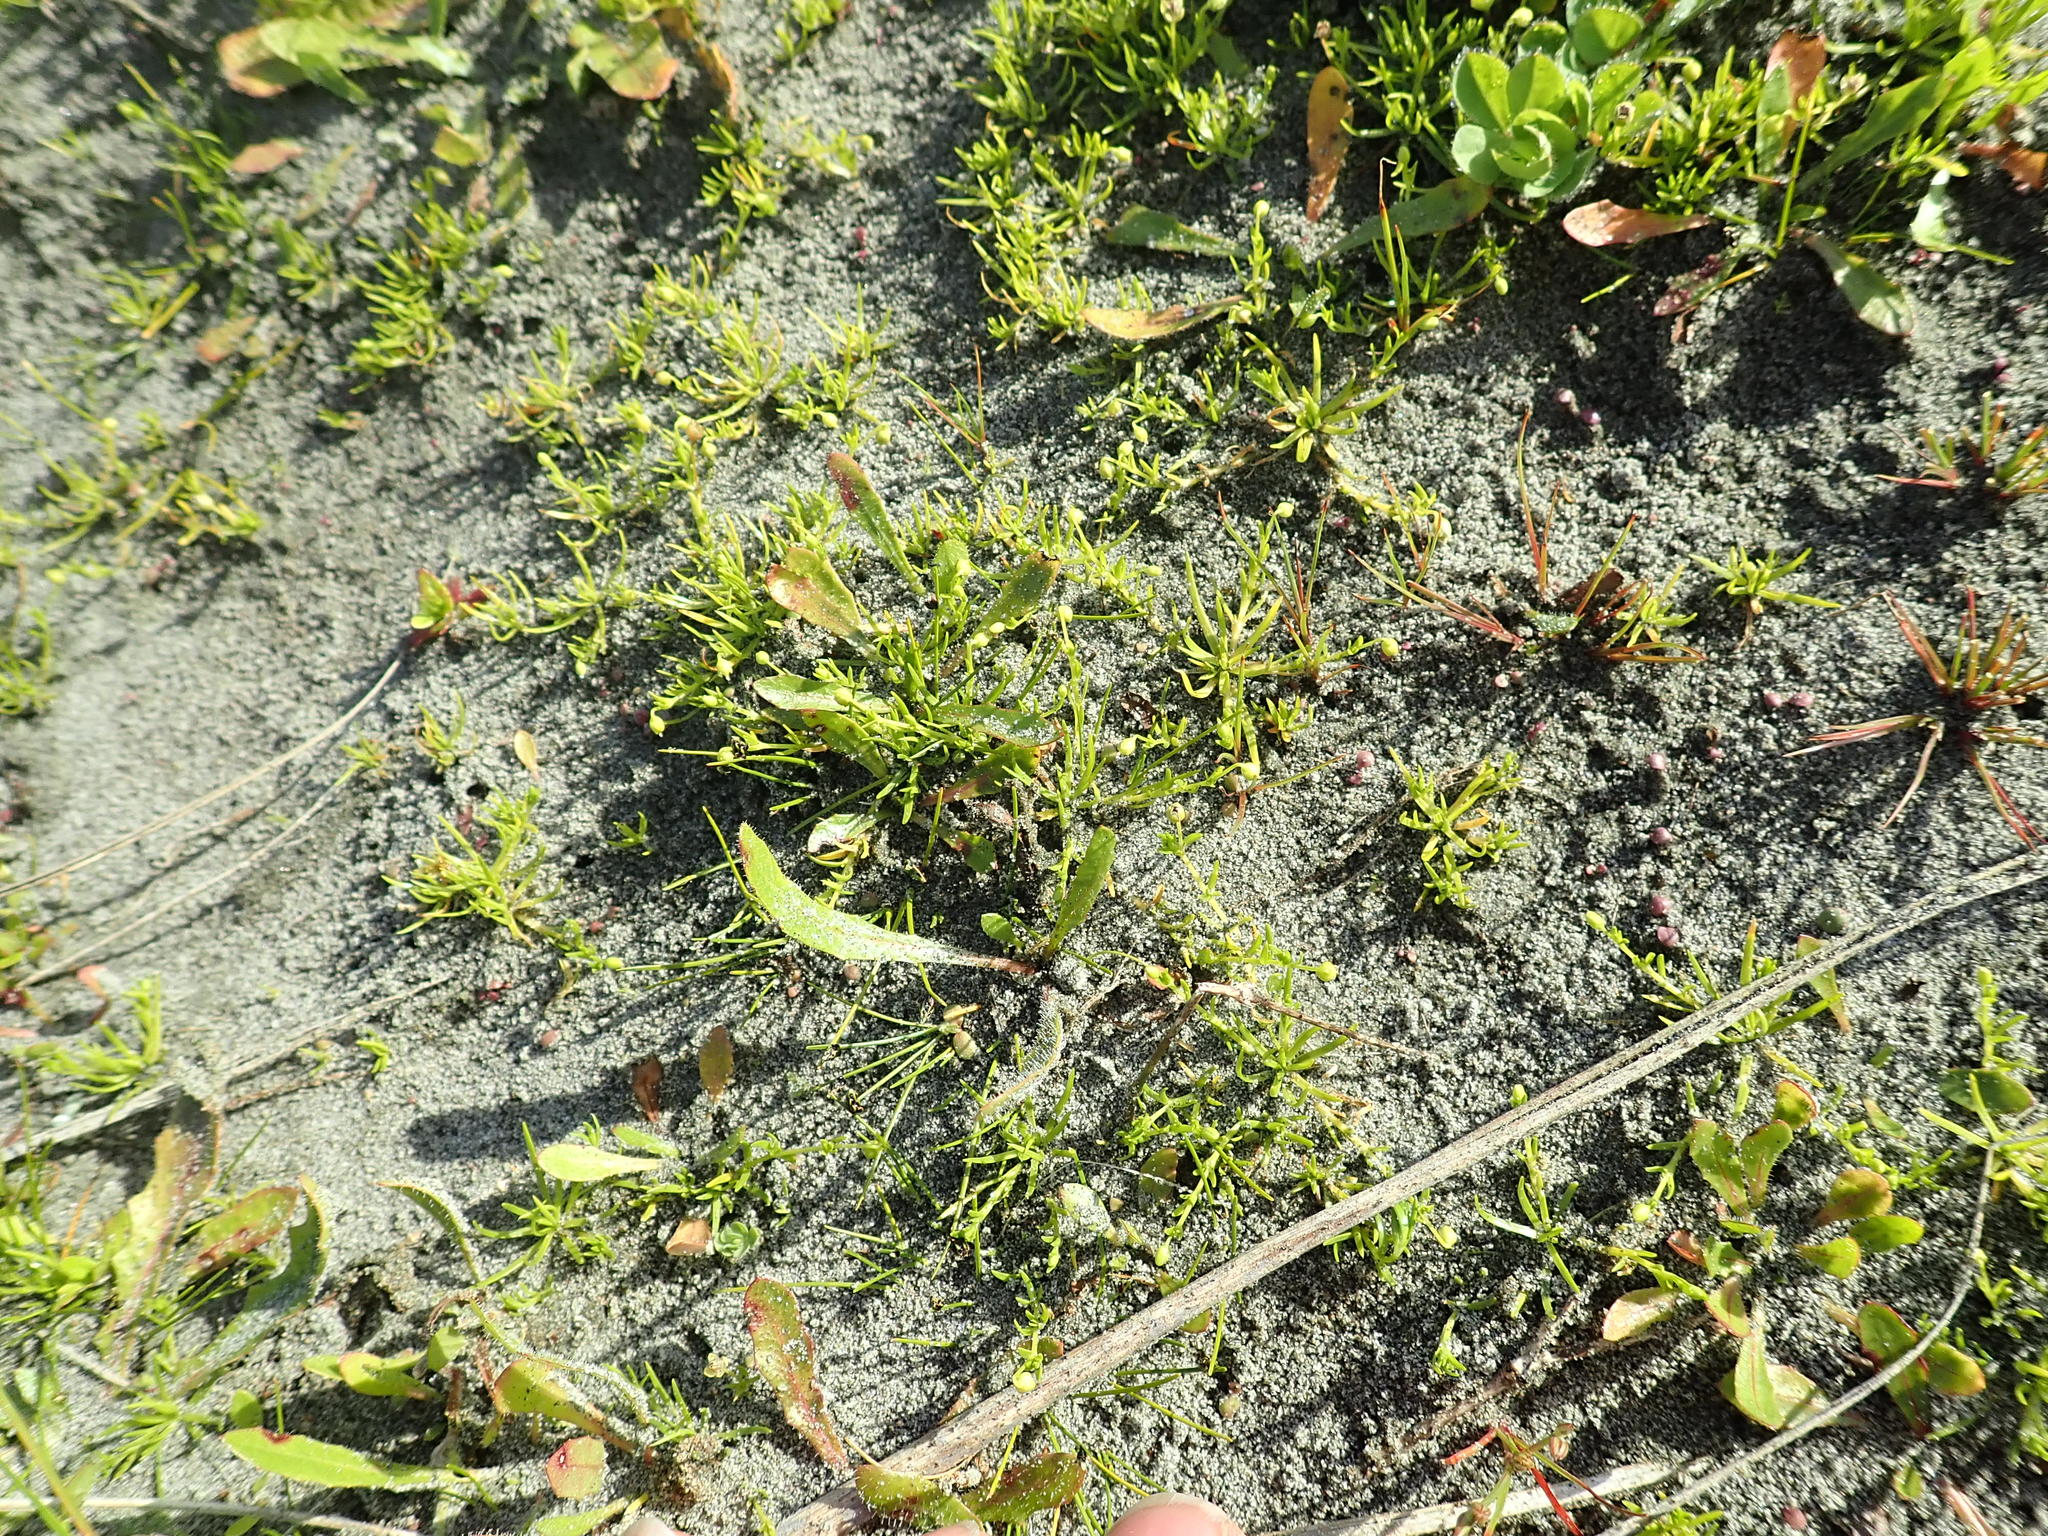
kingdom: Plantae
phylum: Tracheophyta
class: Magnoliopsida
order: Caryophyllales
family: Caryophyllaceae
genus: Sagina
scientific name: Sagina procumbens
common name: Procumbent pearlwort
